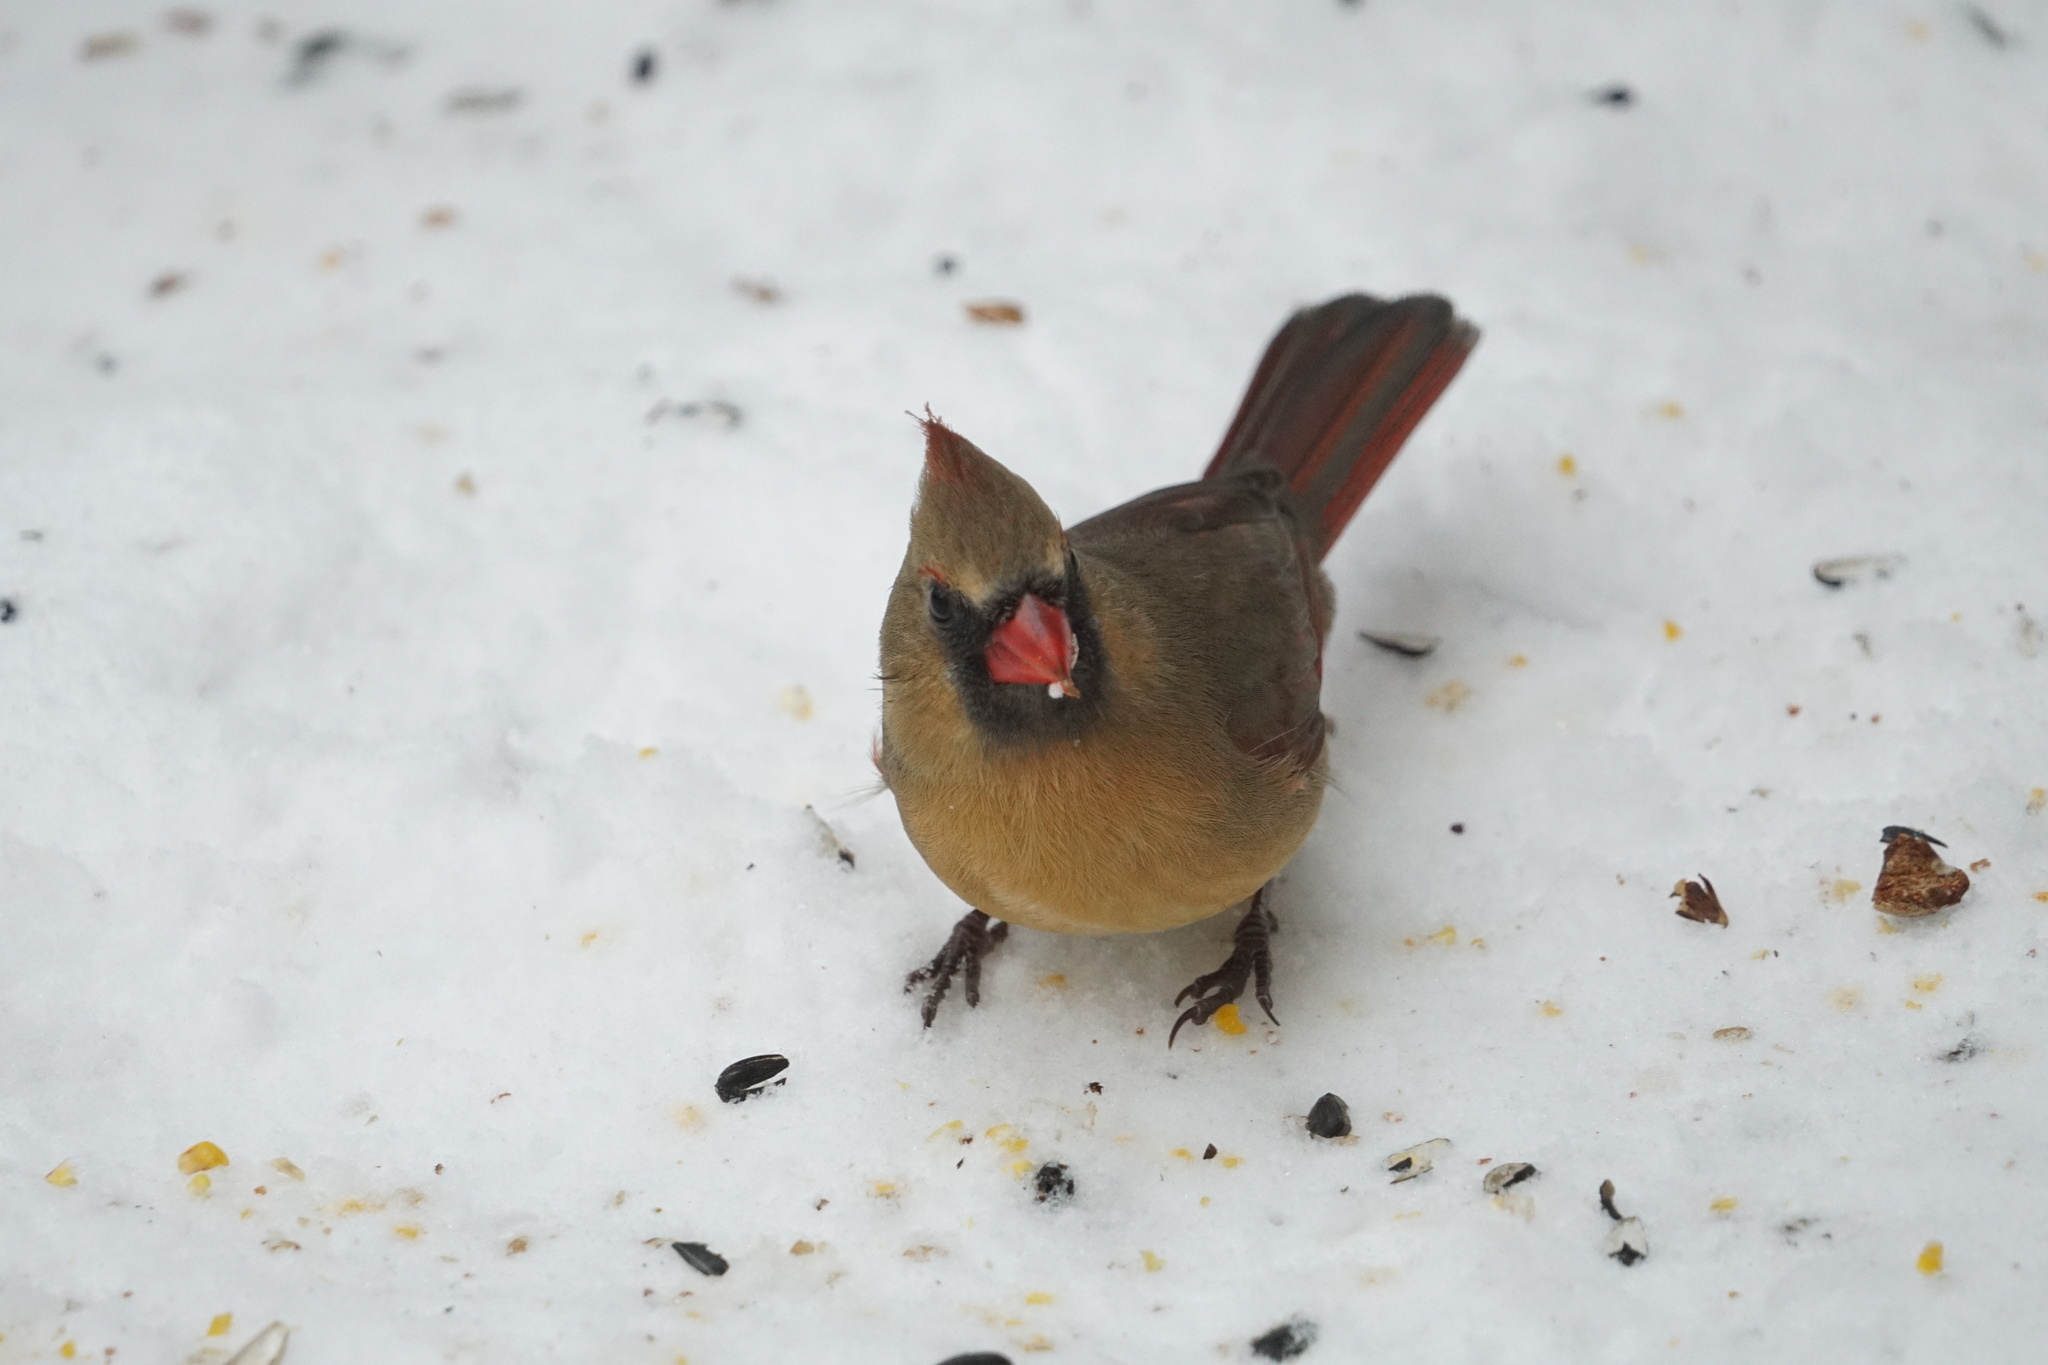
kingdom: Animalia
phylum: Chordata
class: Aves
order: Passeriformes
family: Cardinalidae
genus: Cardinalis
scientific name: Cardinalis cardinalis
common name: Northern cardinal
